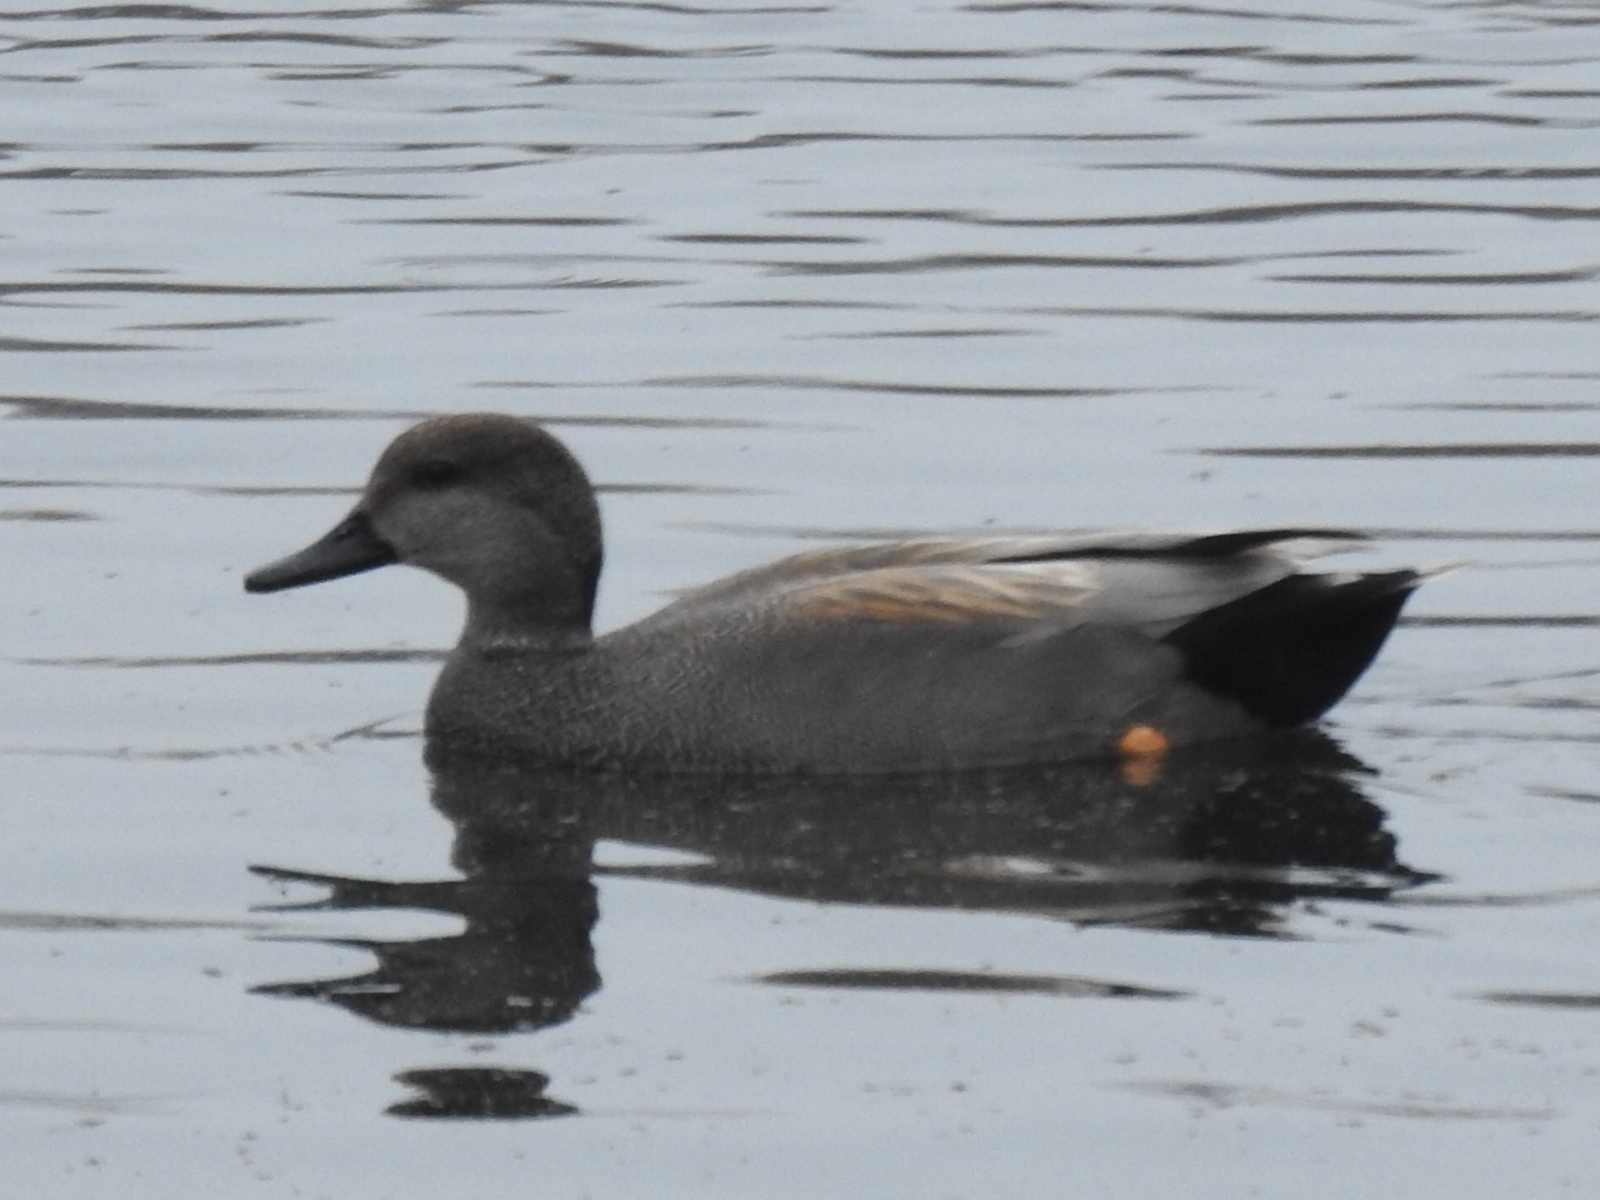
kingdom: Animalia
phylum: Chordata
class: Aves
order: Anseriformes
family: Anatidae
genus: Mareca
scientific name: Mareca strepera
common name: Gadwall
